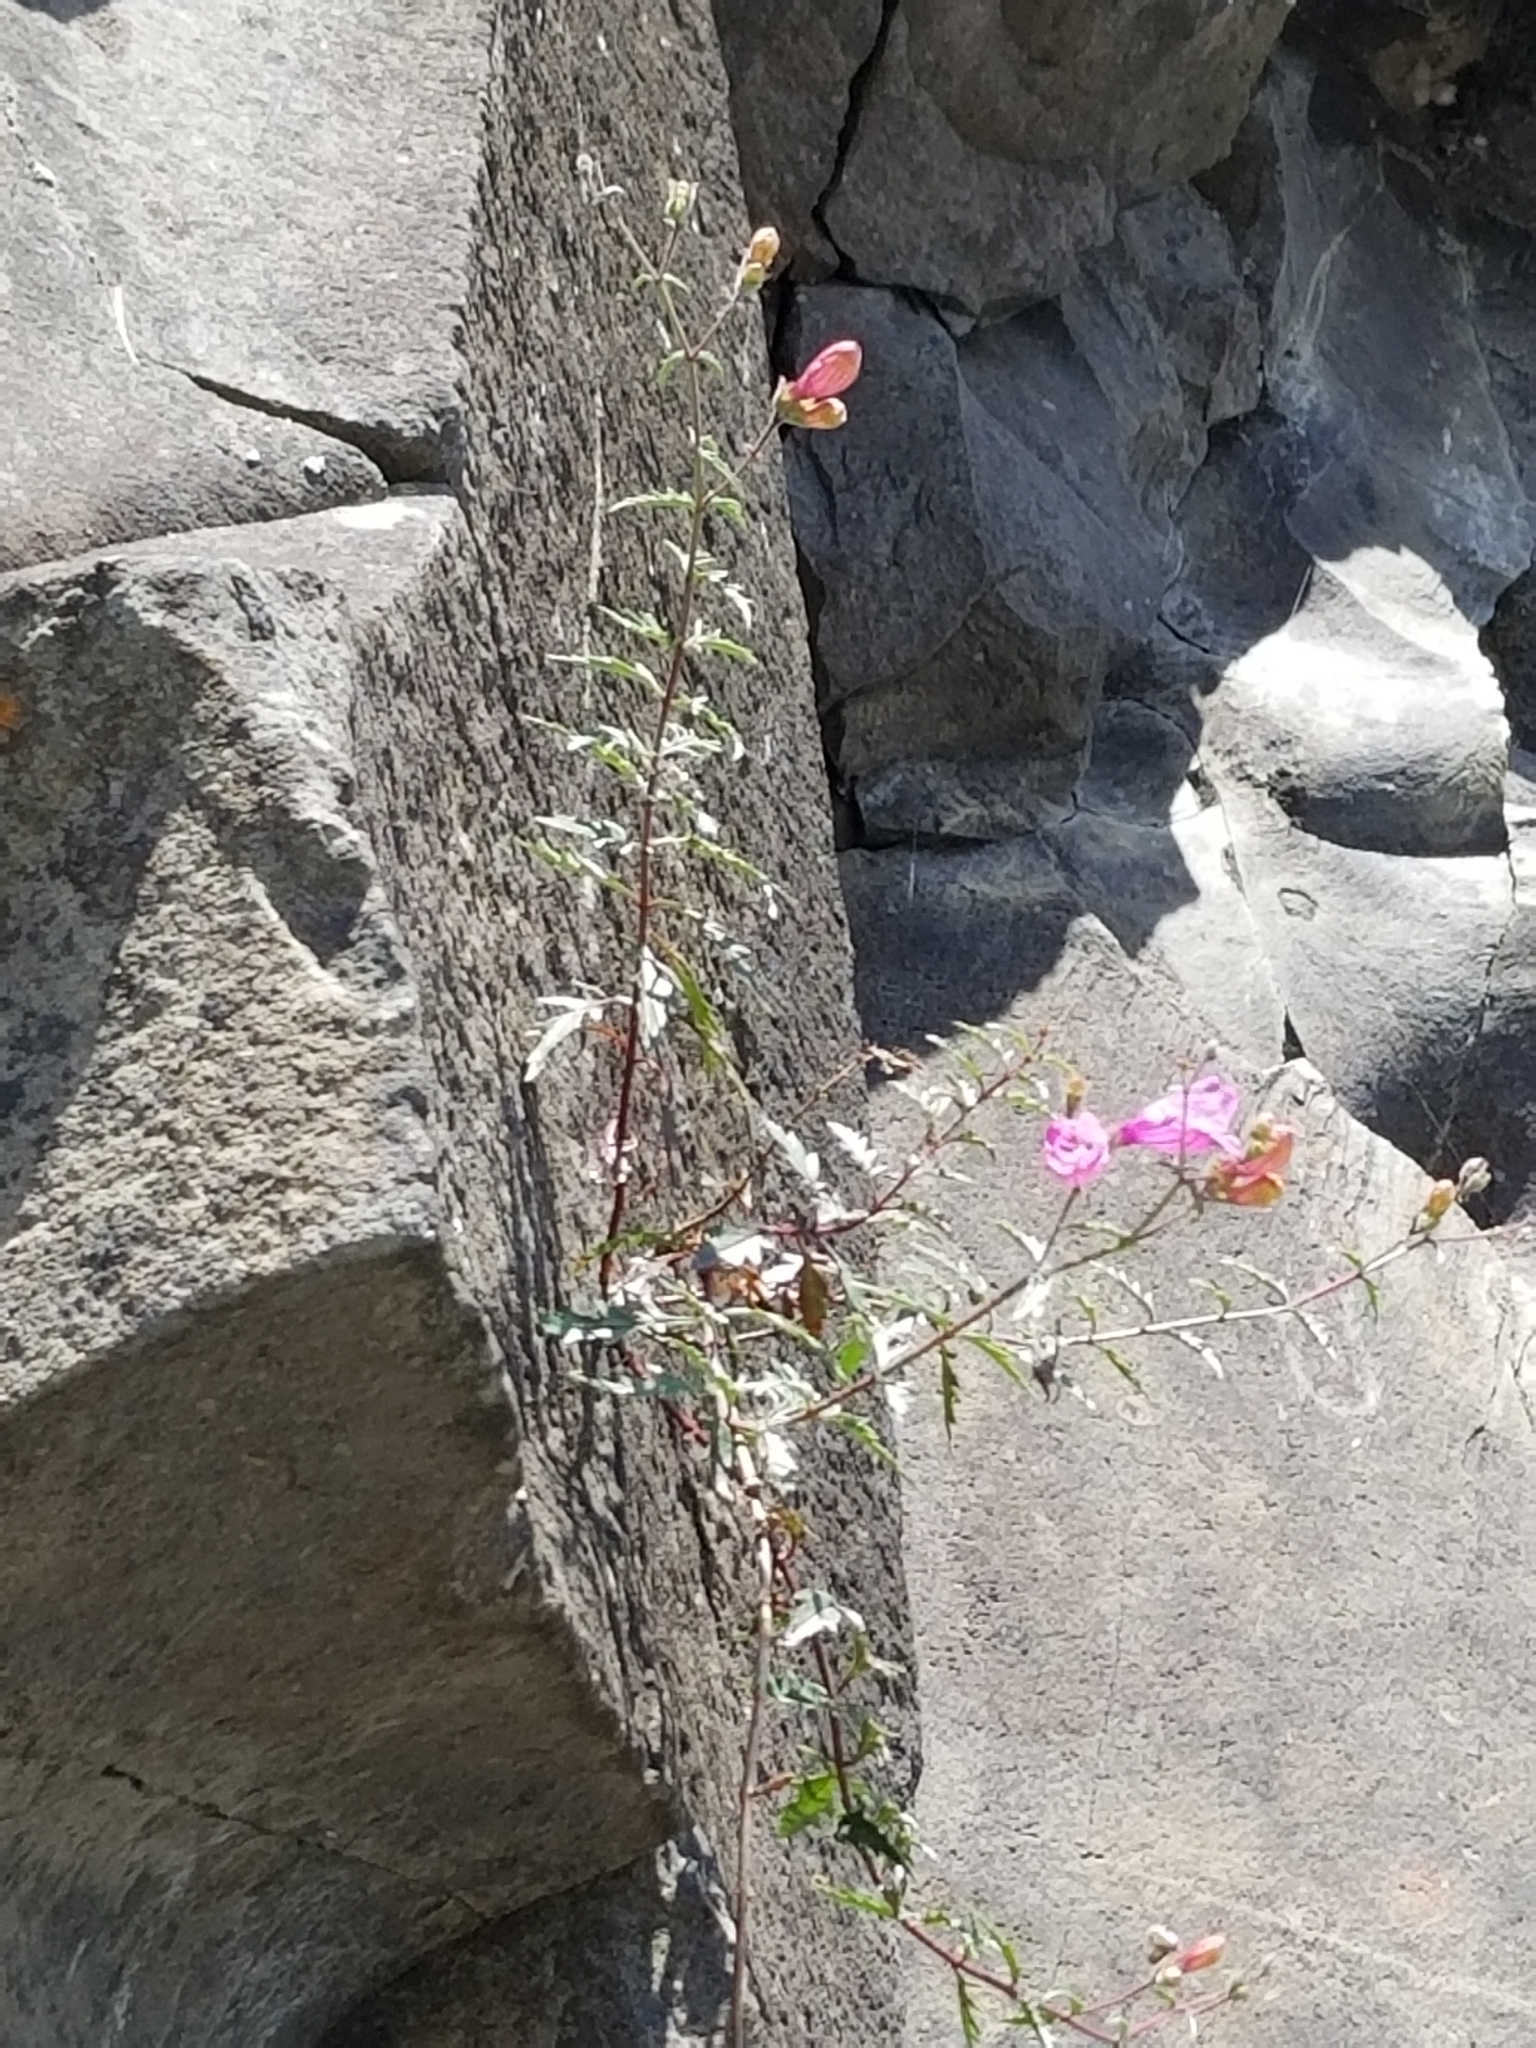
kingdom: Plantae
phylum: Tracheophyta
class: Magnoliopsida
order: Lamiales
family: Plantaginaceae
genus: Penstemon
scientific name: Penstemon richardsonii
